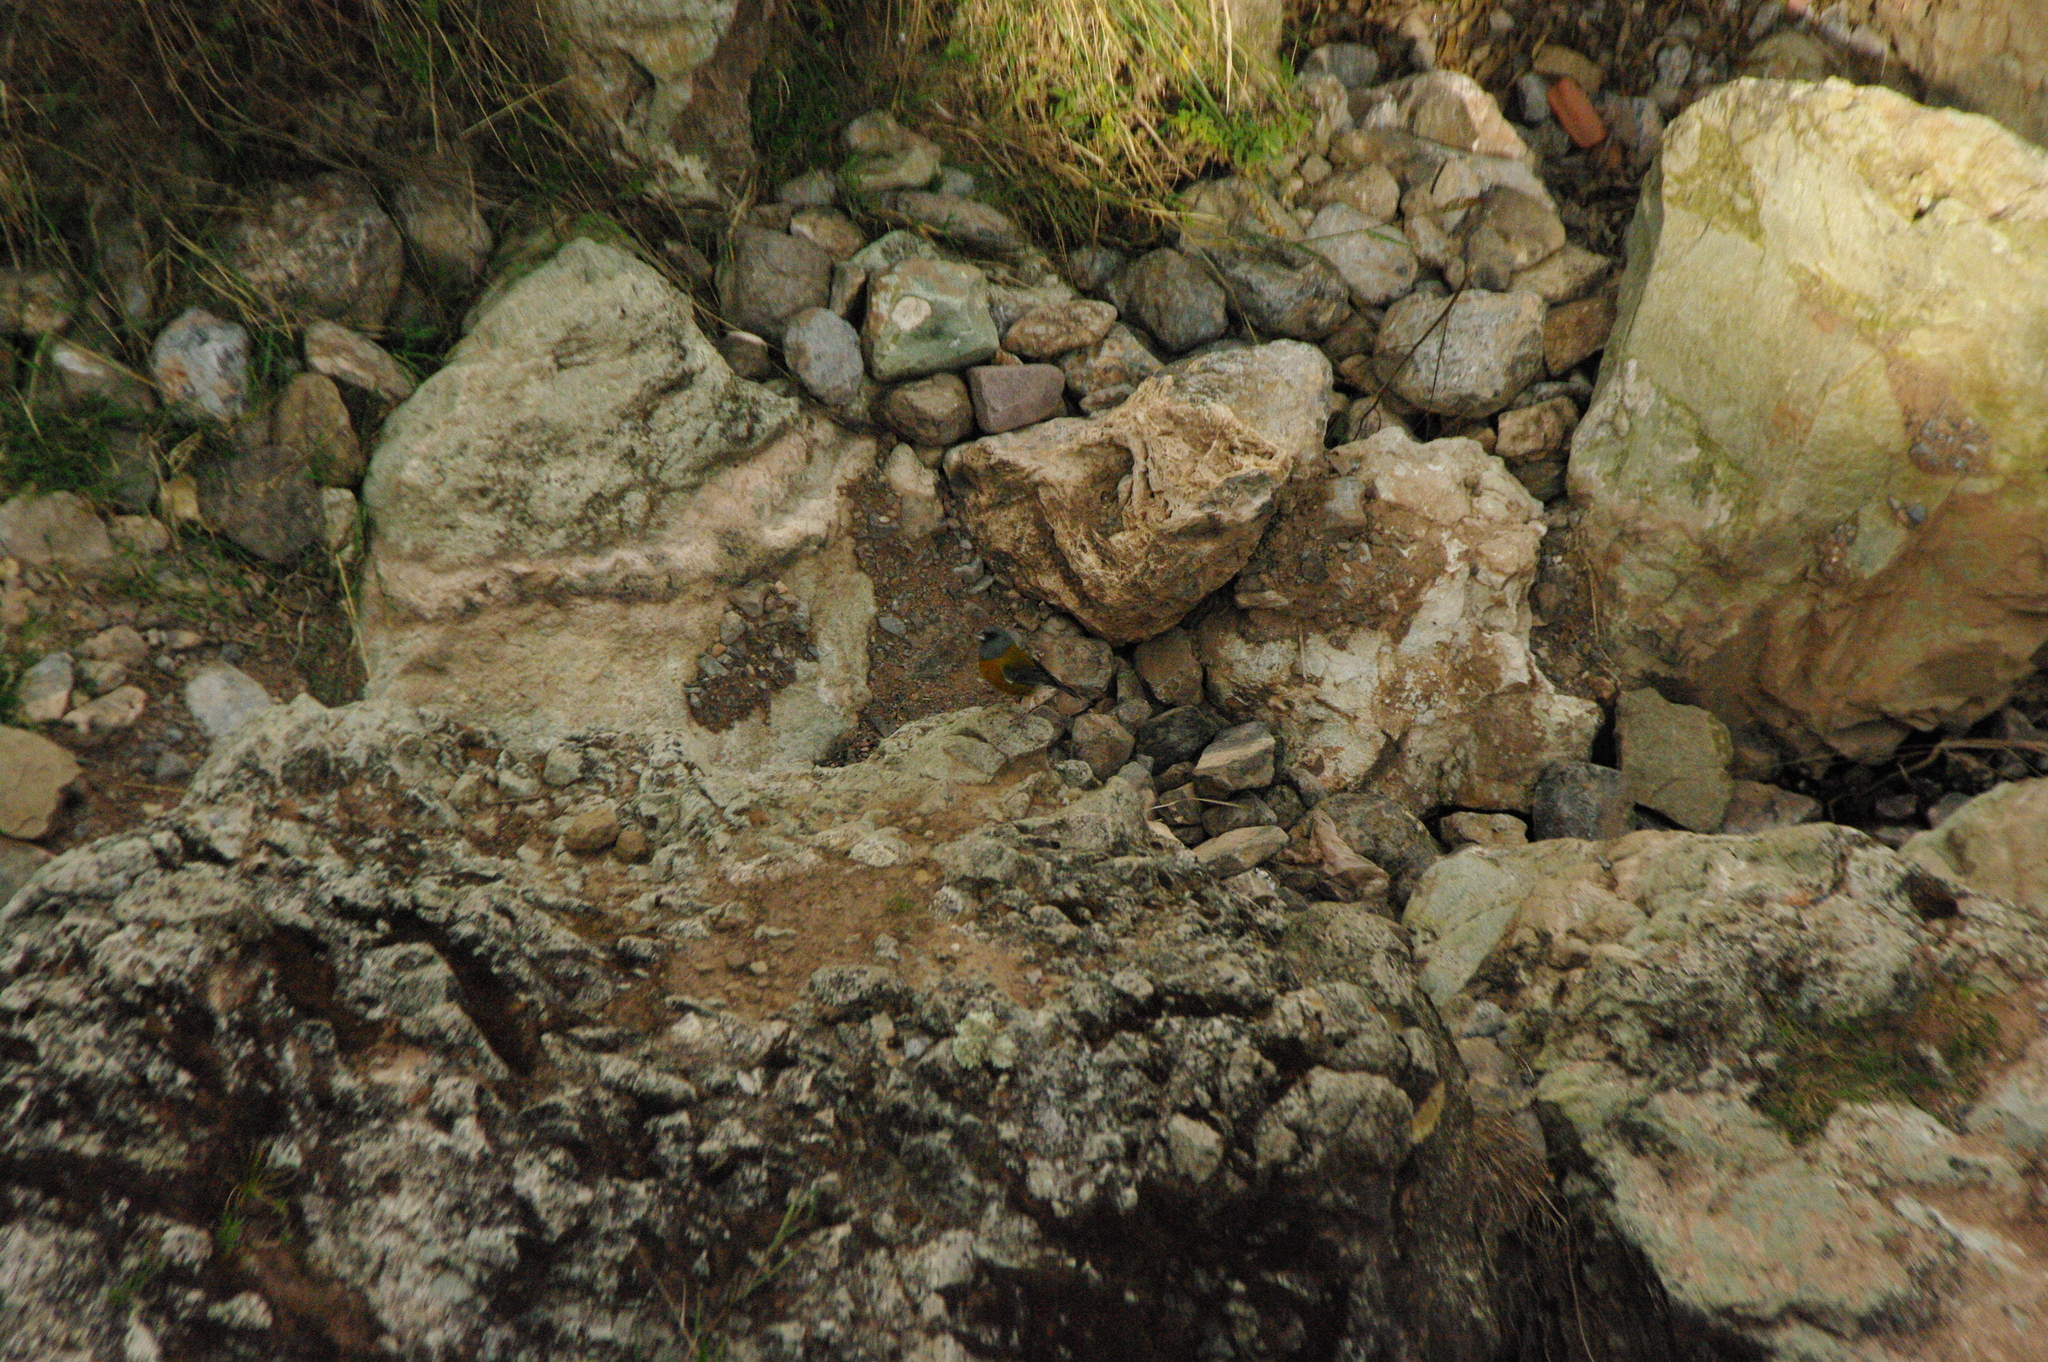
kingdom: Animalia
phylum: Chordata
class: Aves
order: Passeriformes
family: Thraupidae
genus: Phrygilus
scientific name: Phrygilus punensis
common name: Peruvian sierra finch
